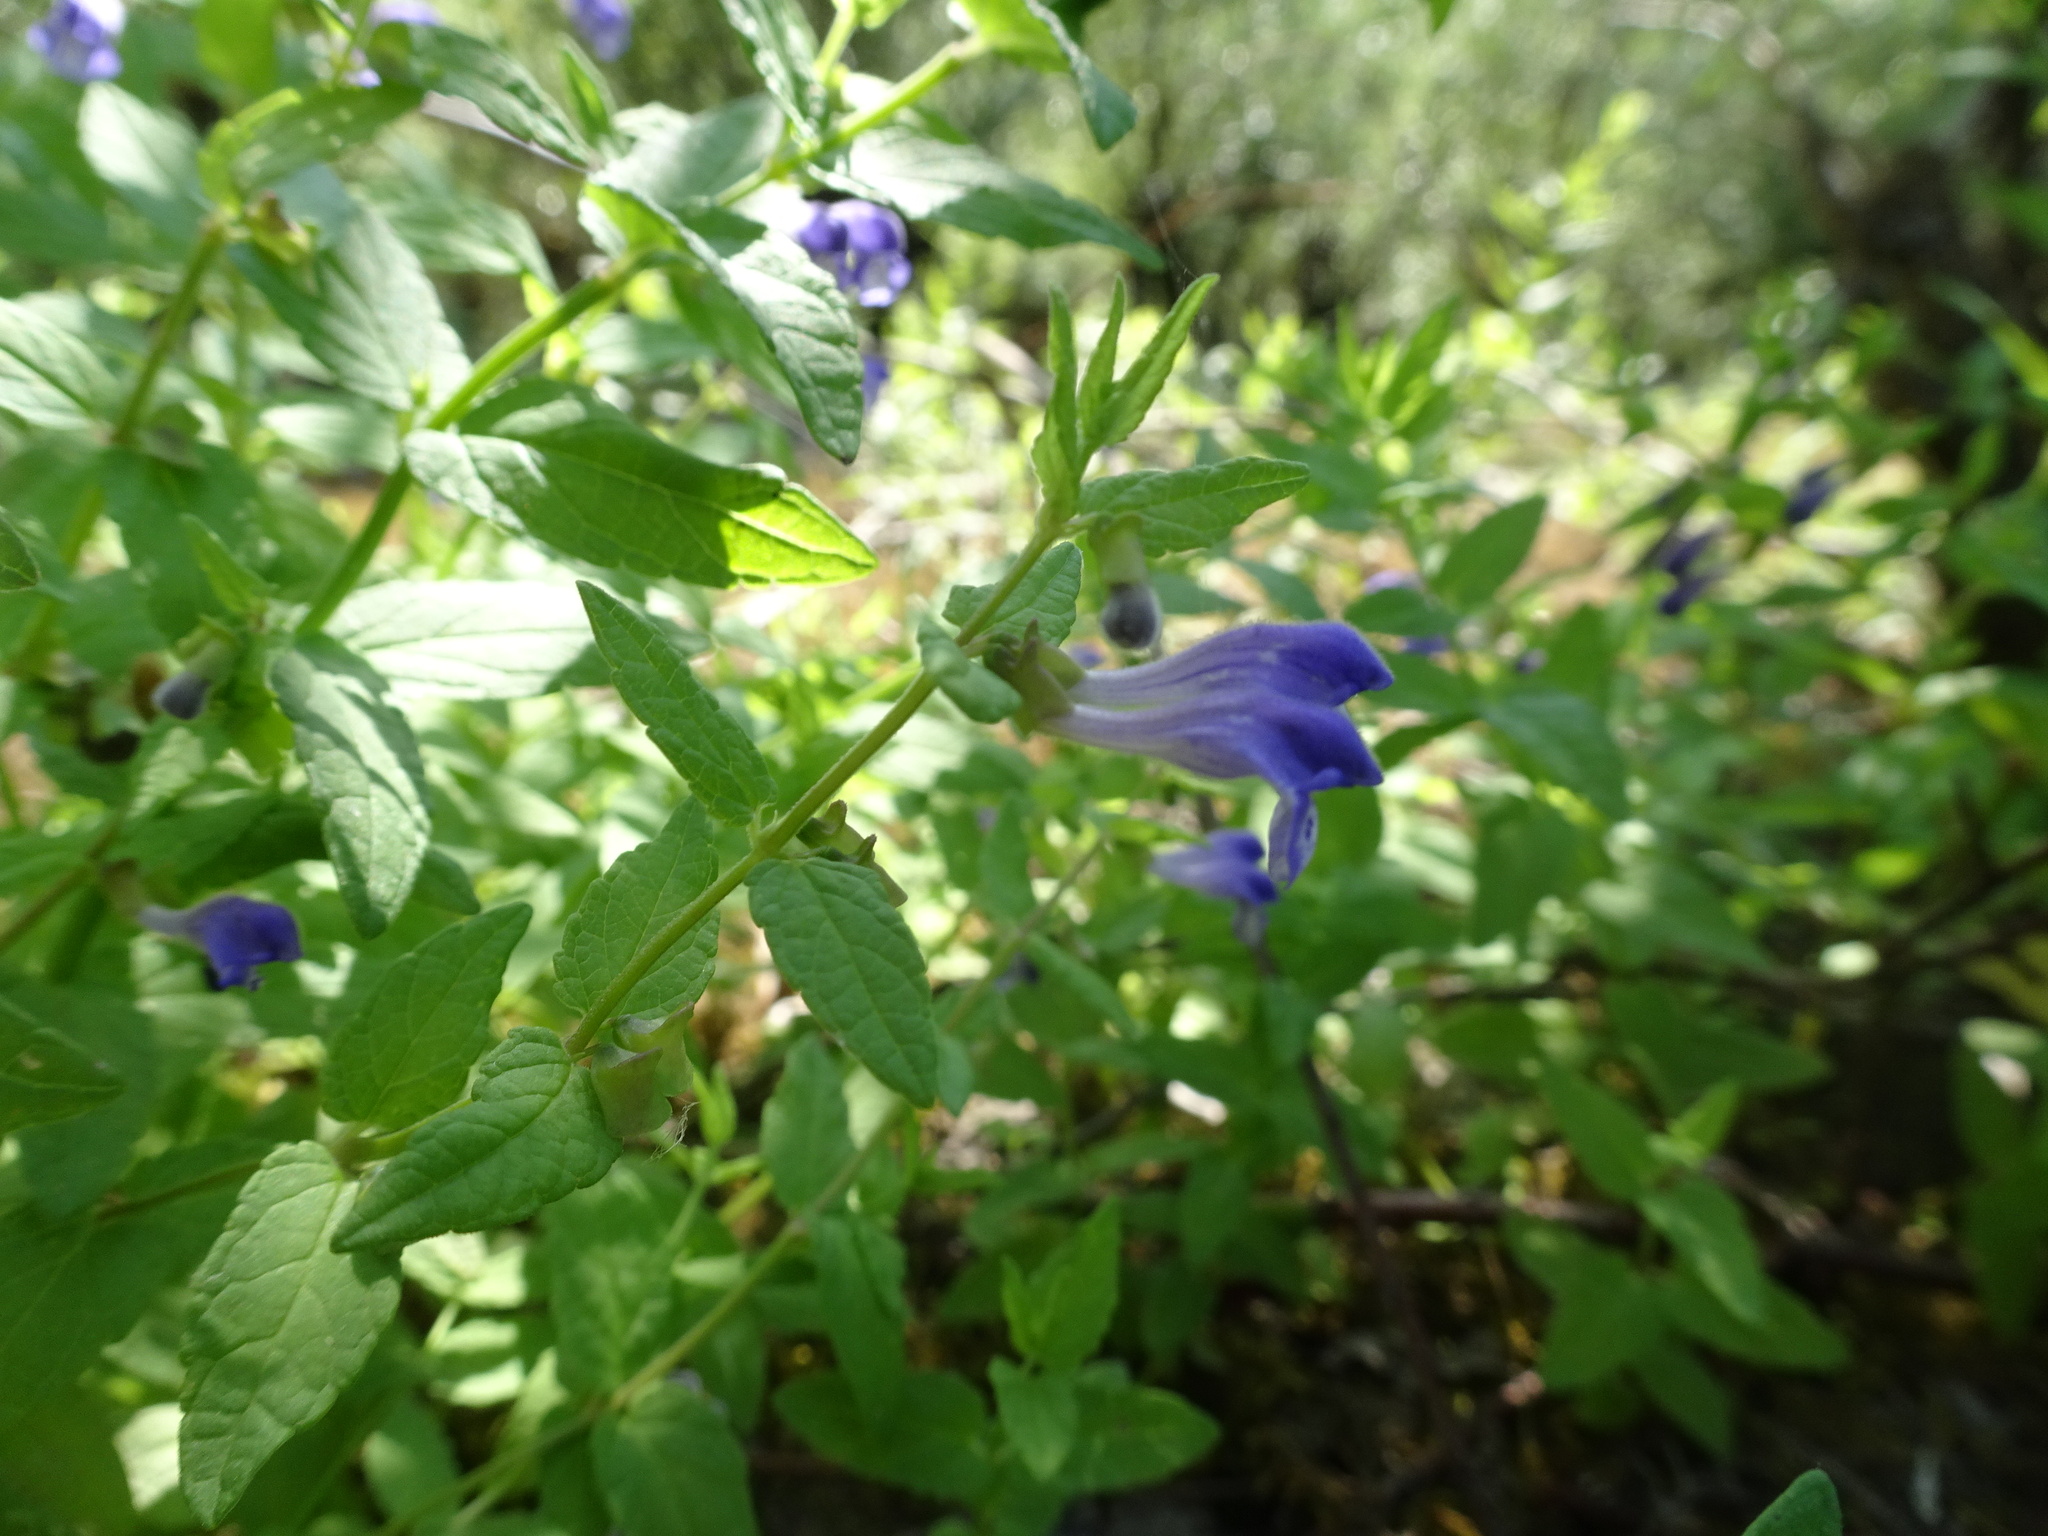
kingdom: Plantae
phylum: Tracheophyta
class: Magnoliopsida
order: Lamiales
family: Lamiaceae
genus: Scutellaria
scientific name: Scutellaria galericulata
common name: Skullcap
